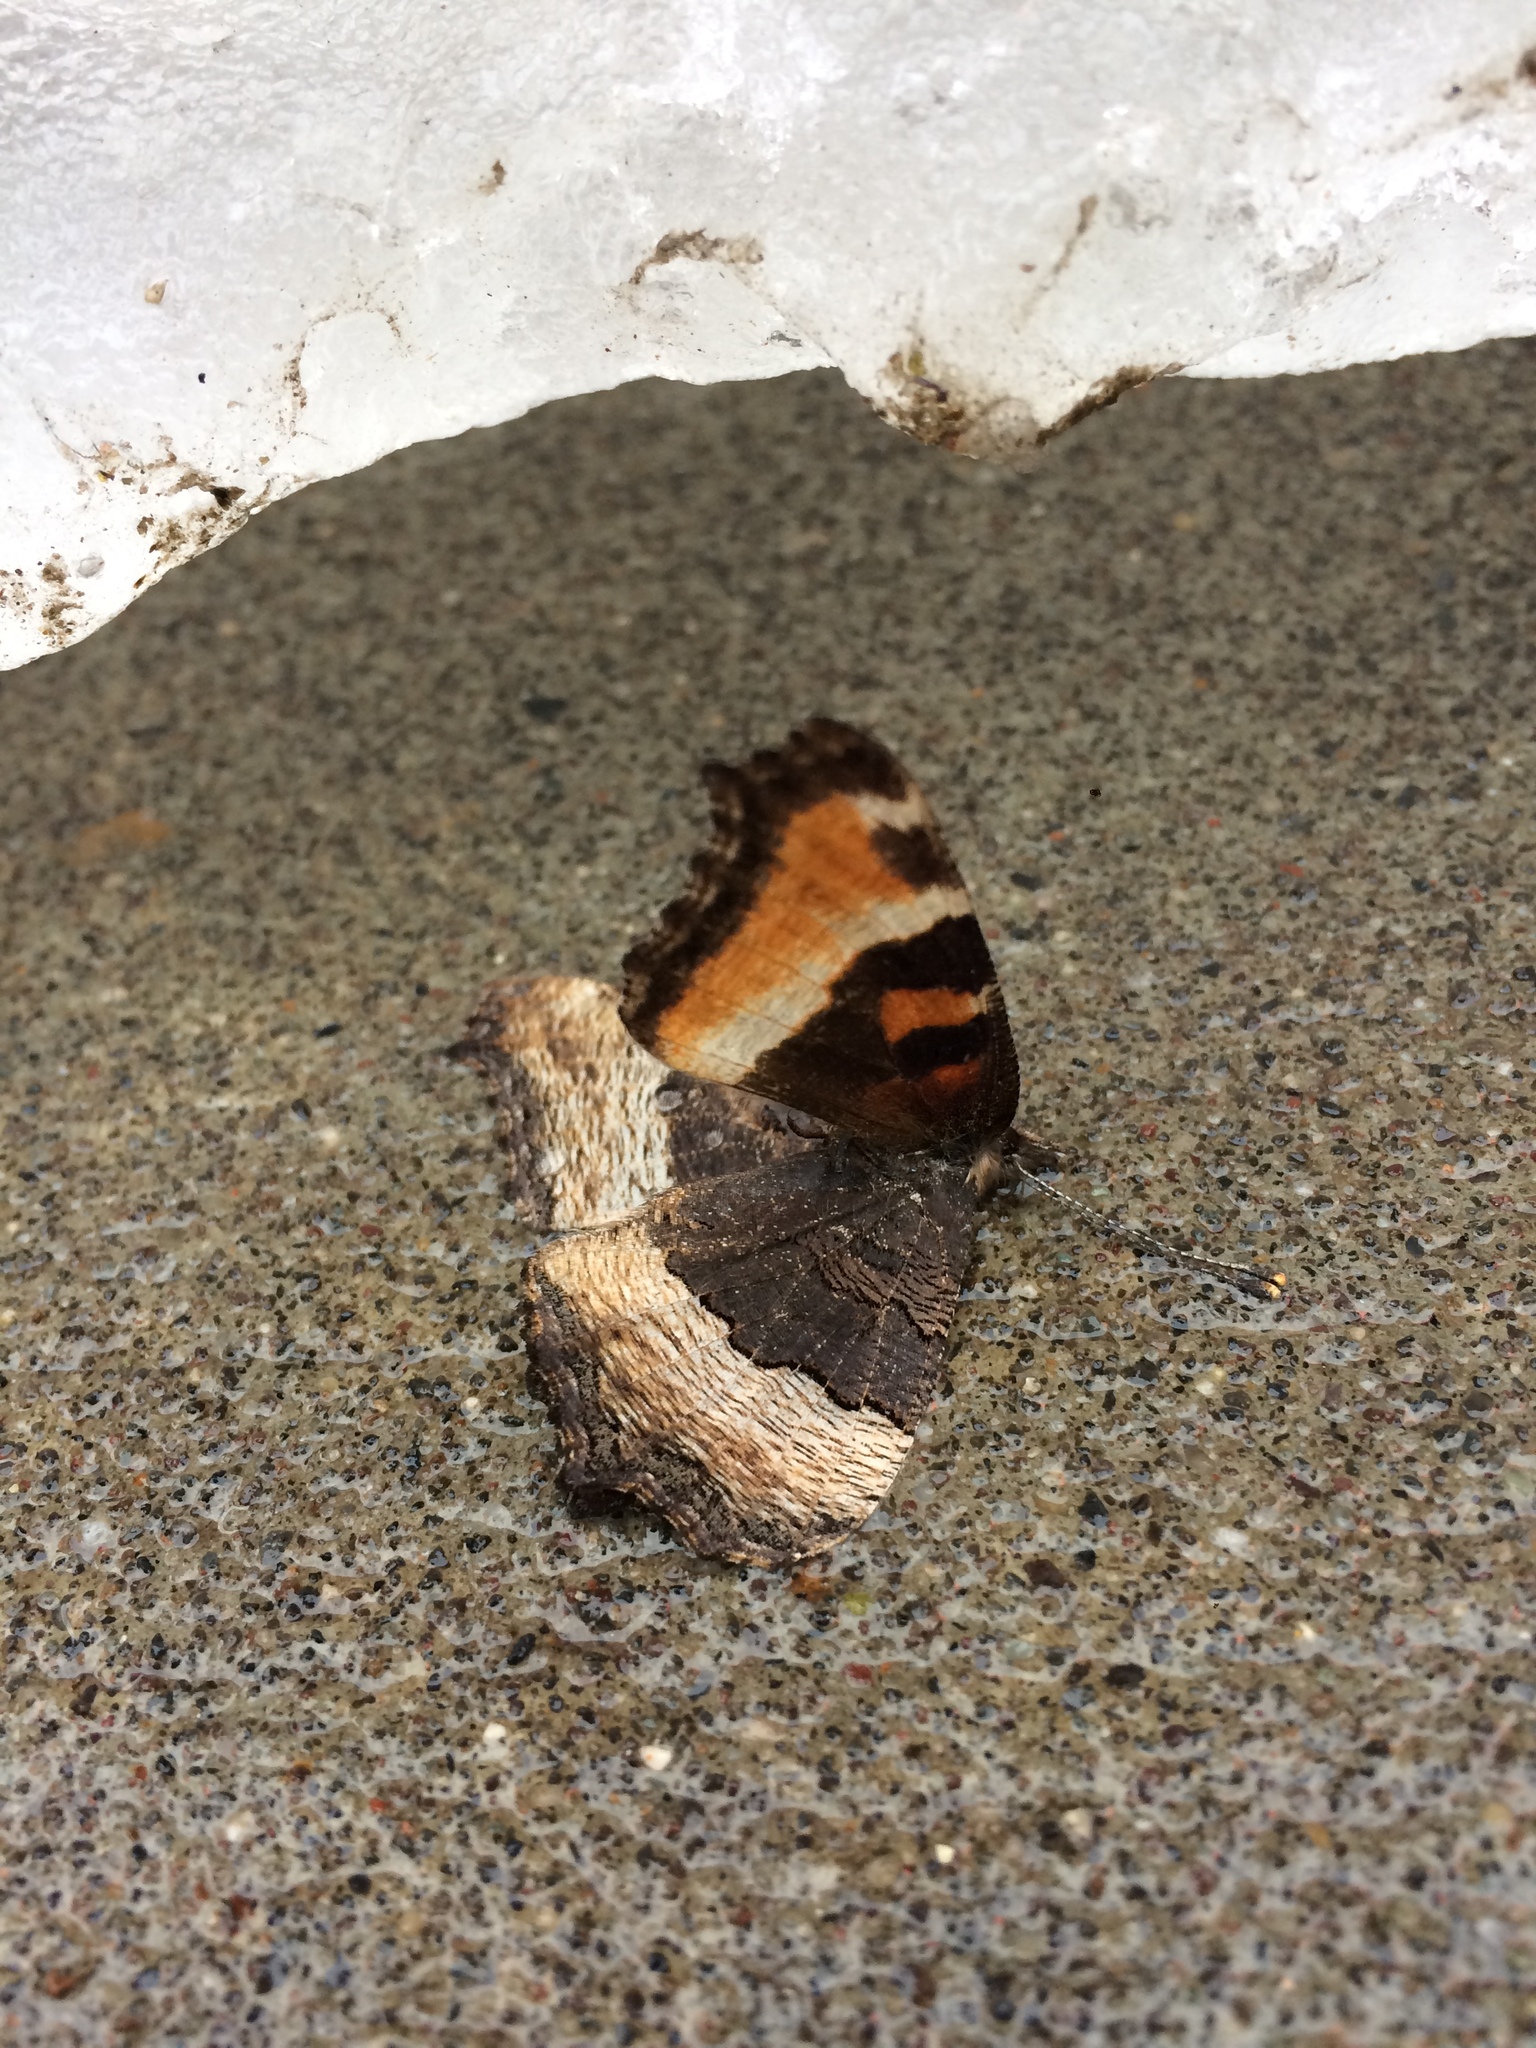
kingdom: Animalia
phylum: Arthropoda
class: Insecta
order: Lepidoptera
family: Nymphalidae
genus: Aglais
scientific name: Aglais milberti
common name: Milbert's tortoiseshell
